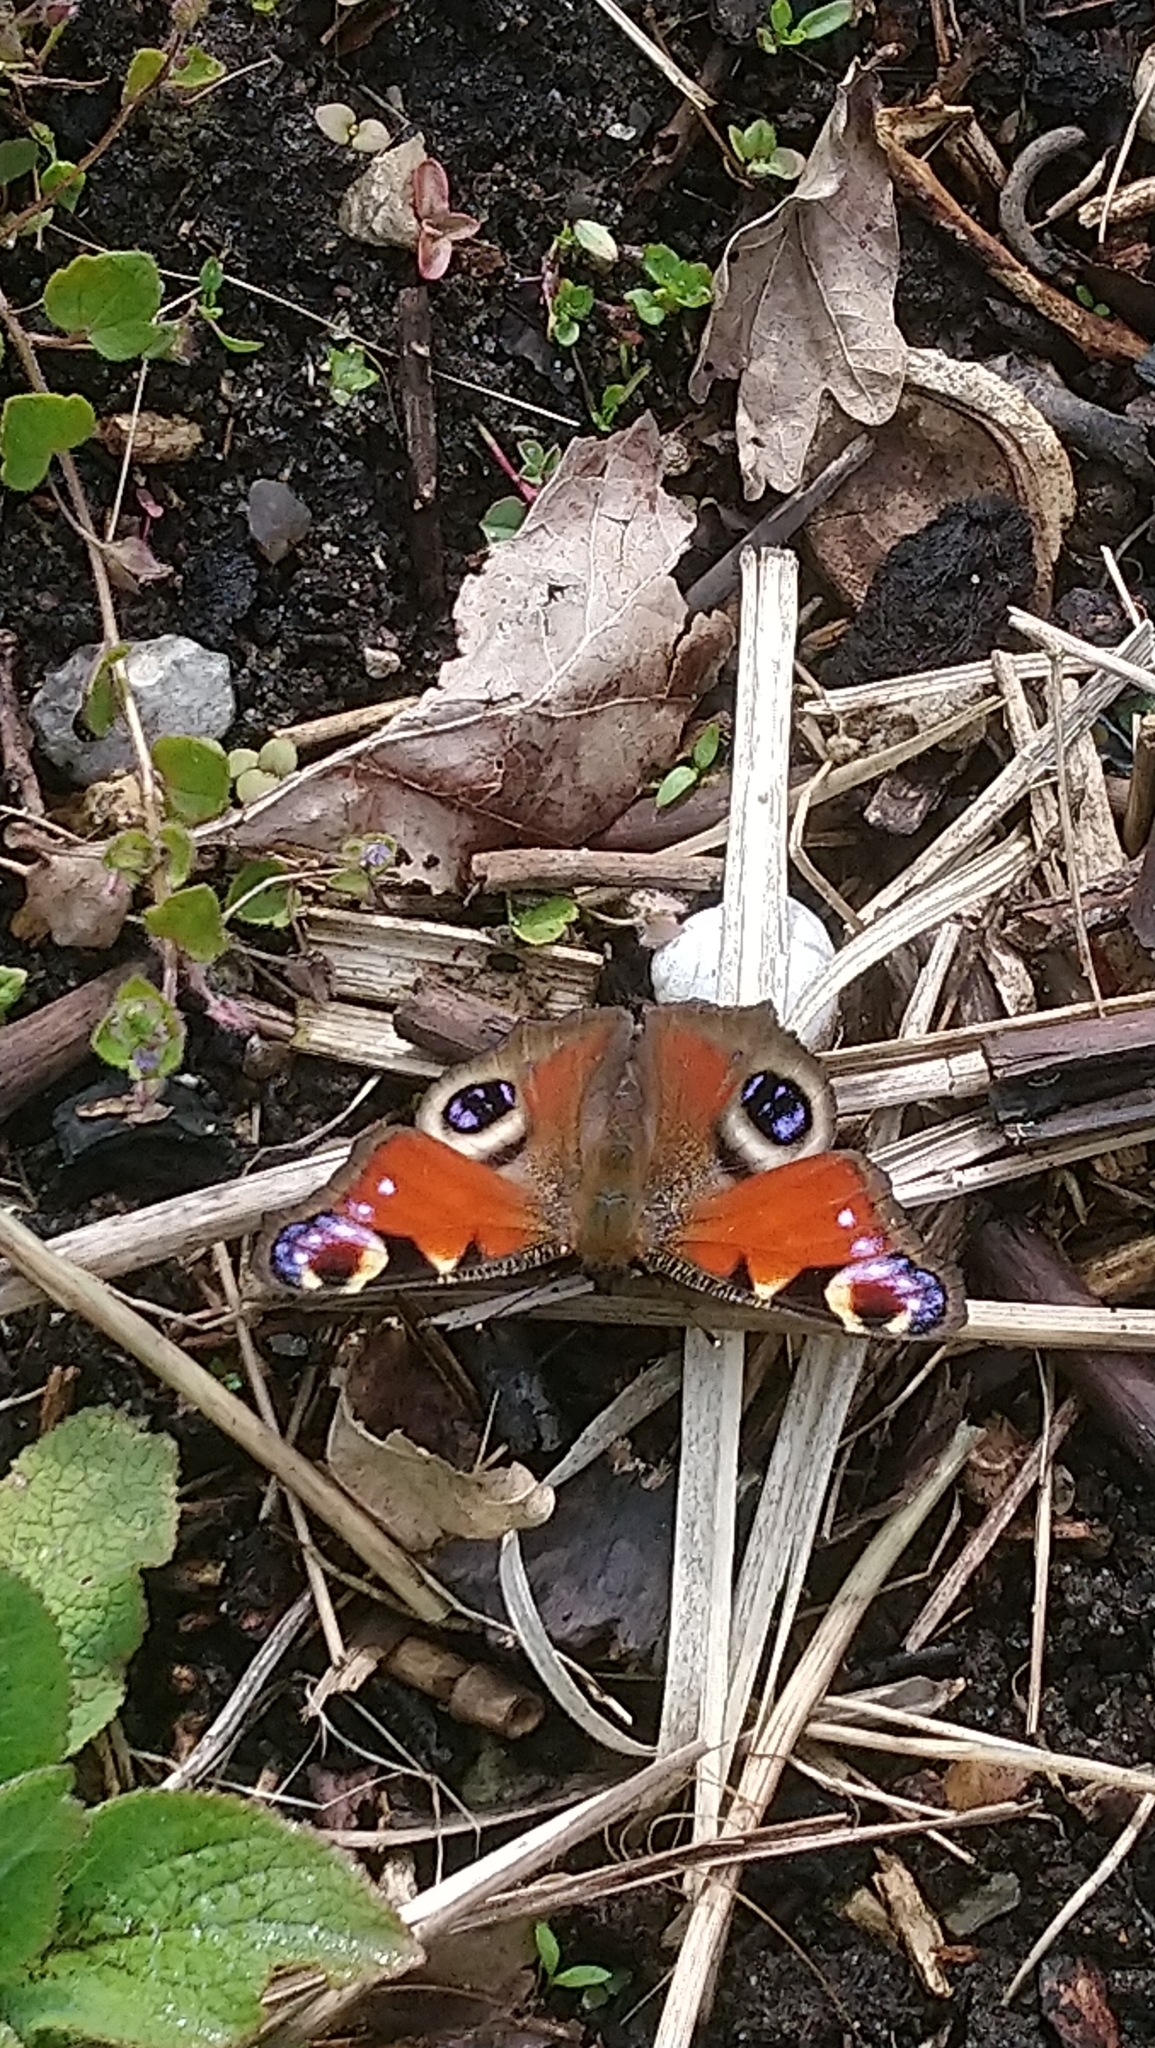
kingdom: Animalia
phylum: Arthropoda
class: Insecta
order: Lepidoptera
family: Nymphalidae
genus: Aglais
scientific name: Aglais io
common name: Peacock
